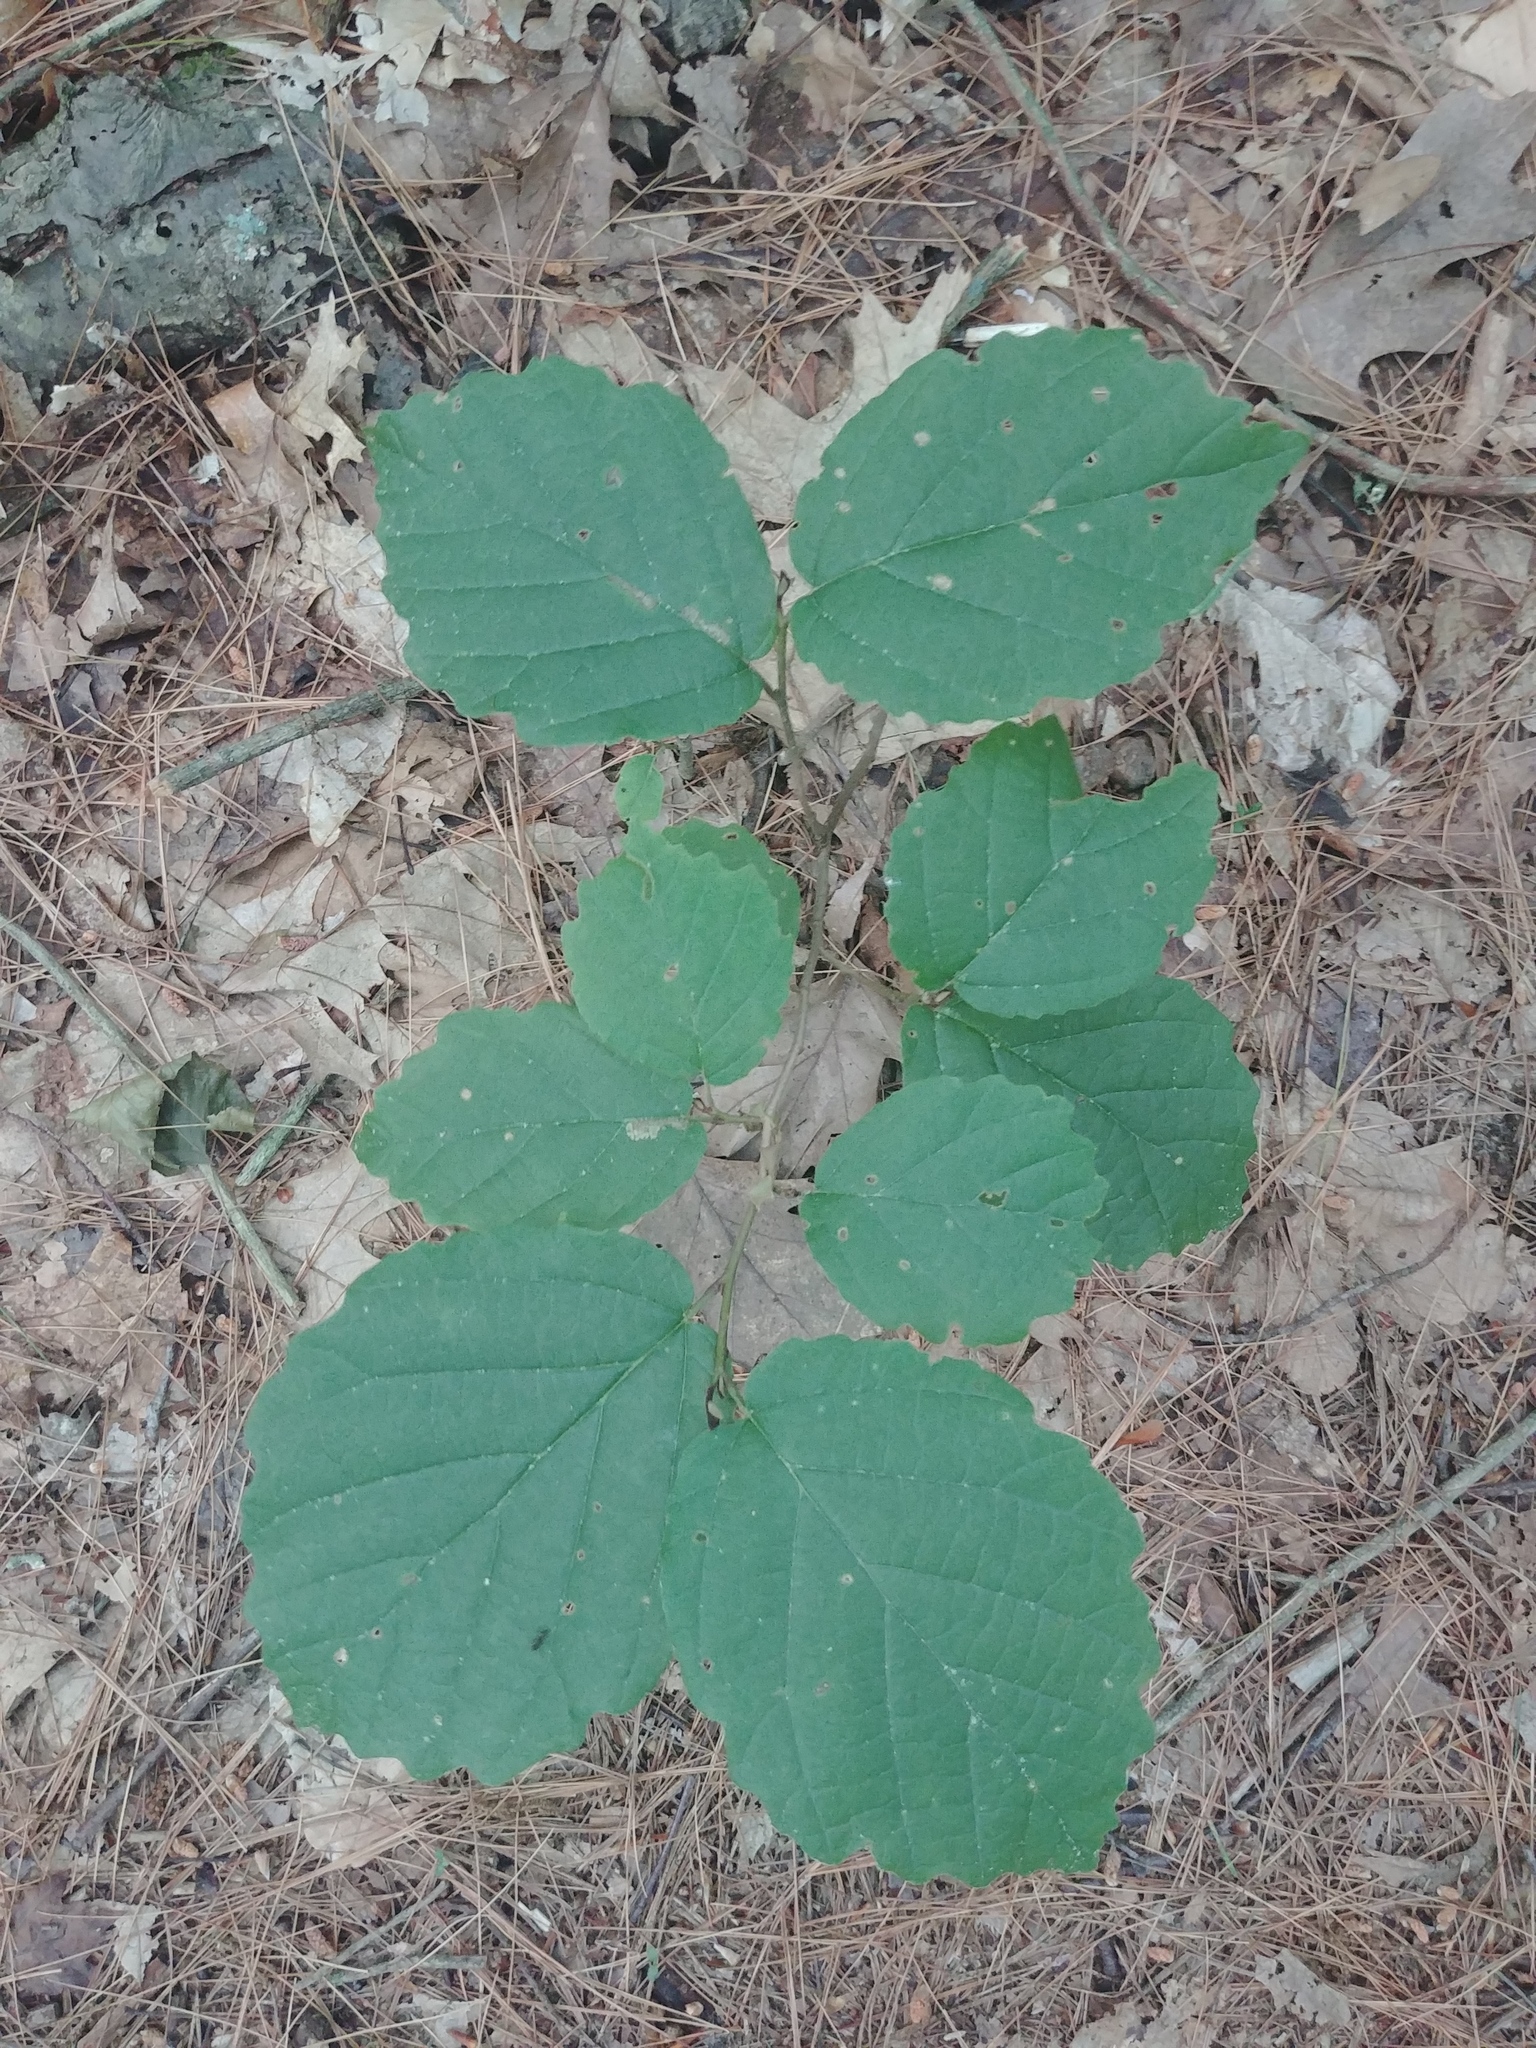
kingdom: Plantae
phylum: Tracheophyta
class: Magnoliopsida
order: Saxifragales
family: Hamamelidaceae
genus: Hamamelis
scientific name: Hamamelis virginiana
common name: Witch-hazel
